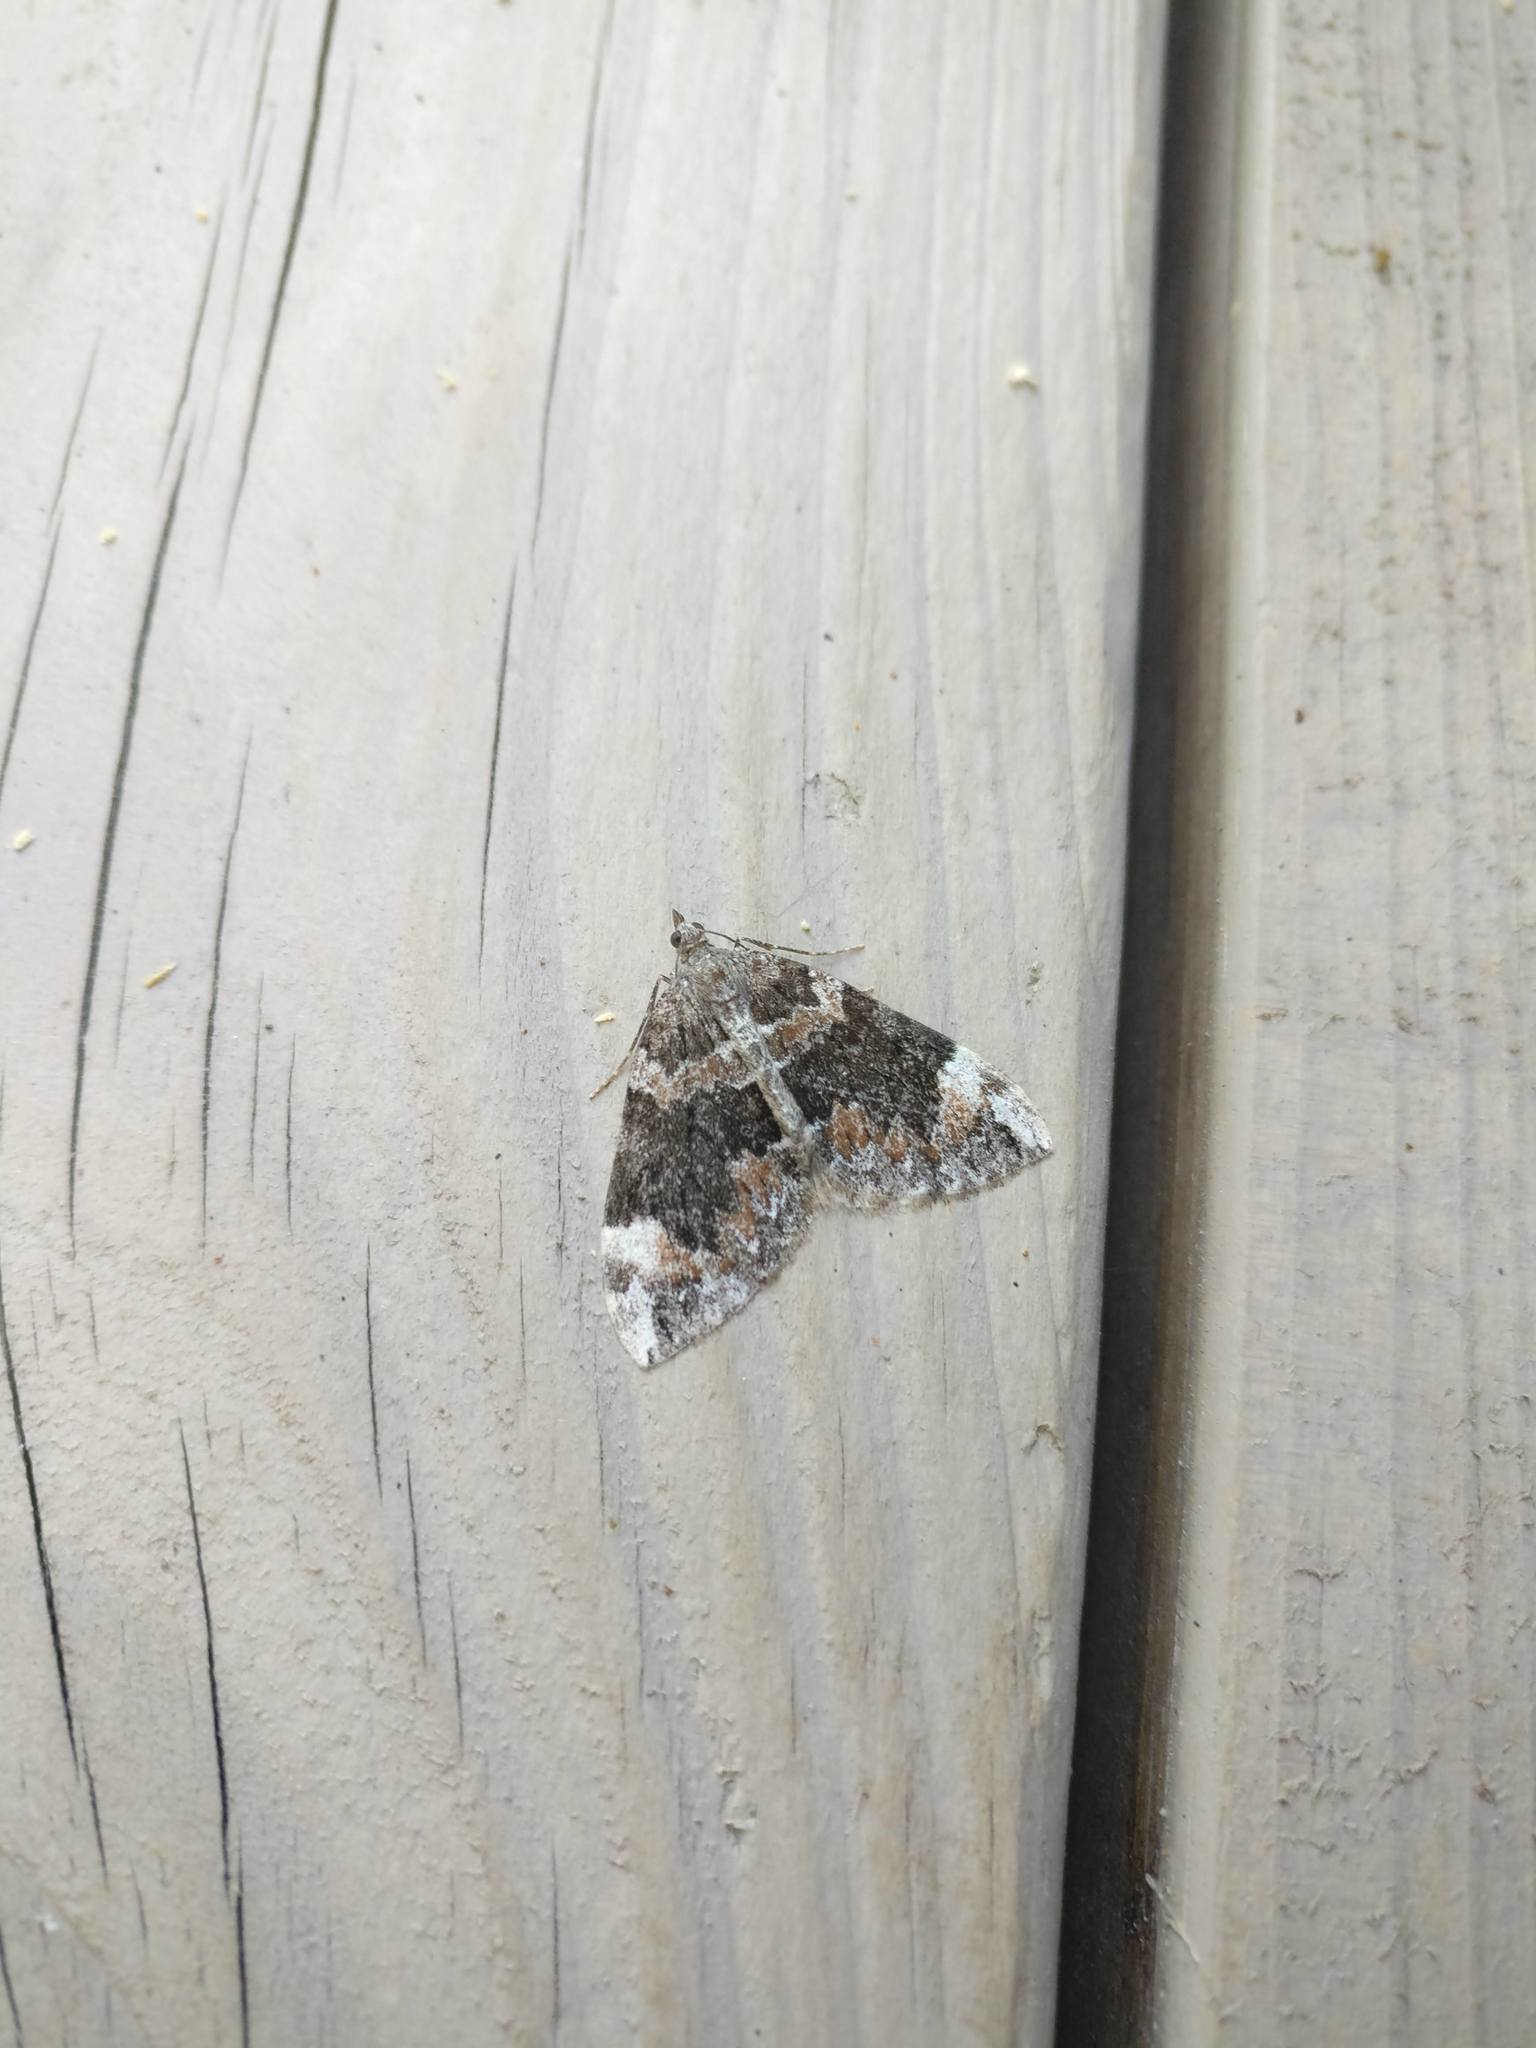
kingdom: Animalia
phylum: Arthropoda
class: Insecta
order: Lepidoptera
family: Geometridae
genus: Dysstroma
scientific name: Dysstroma citrata
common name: Dark marbled carpet
